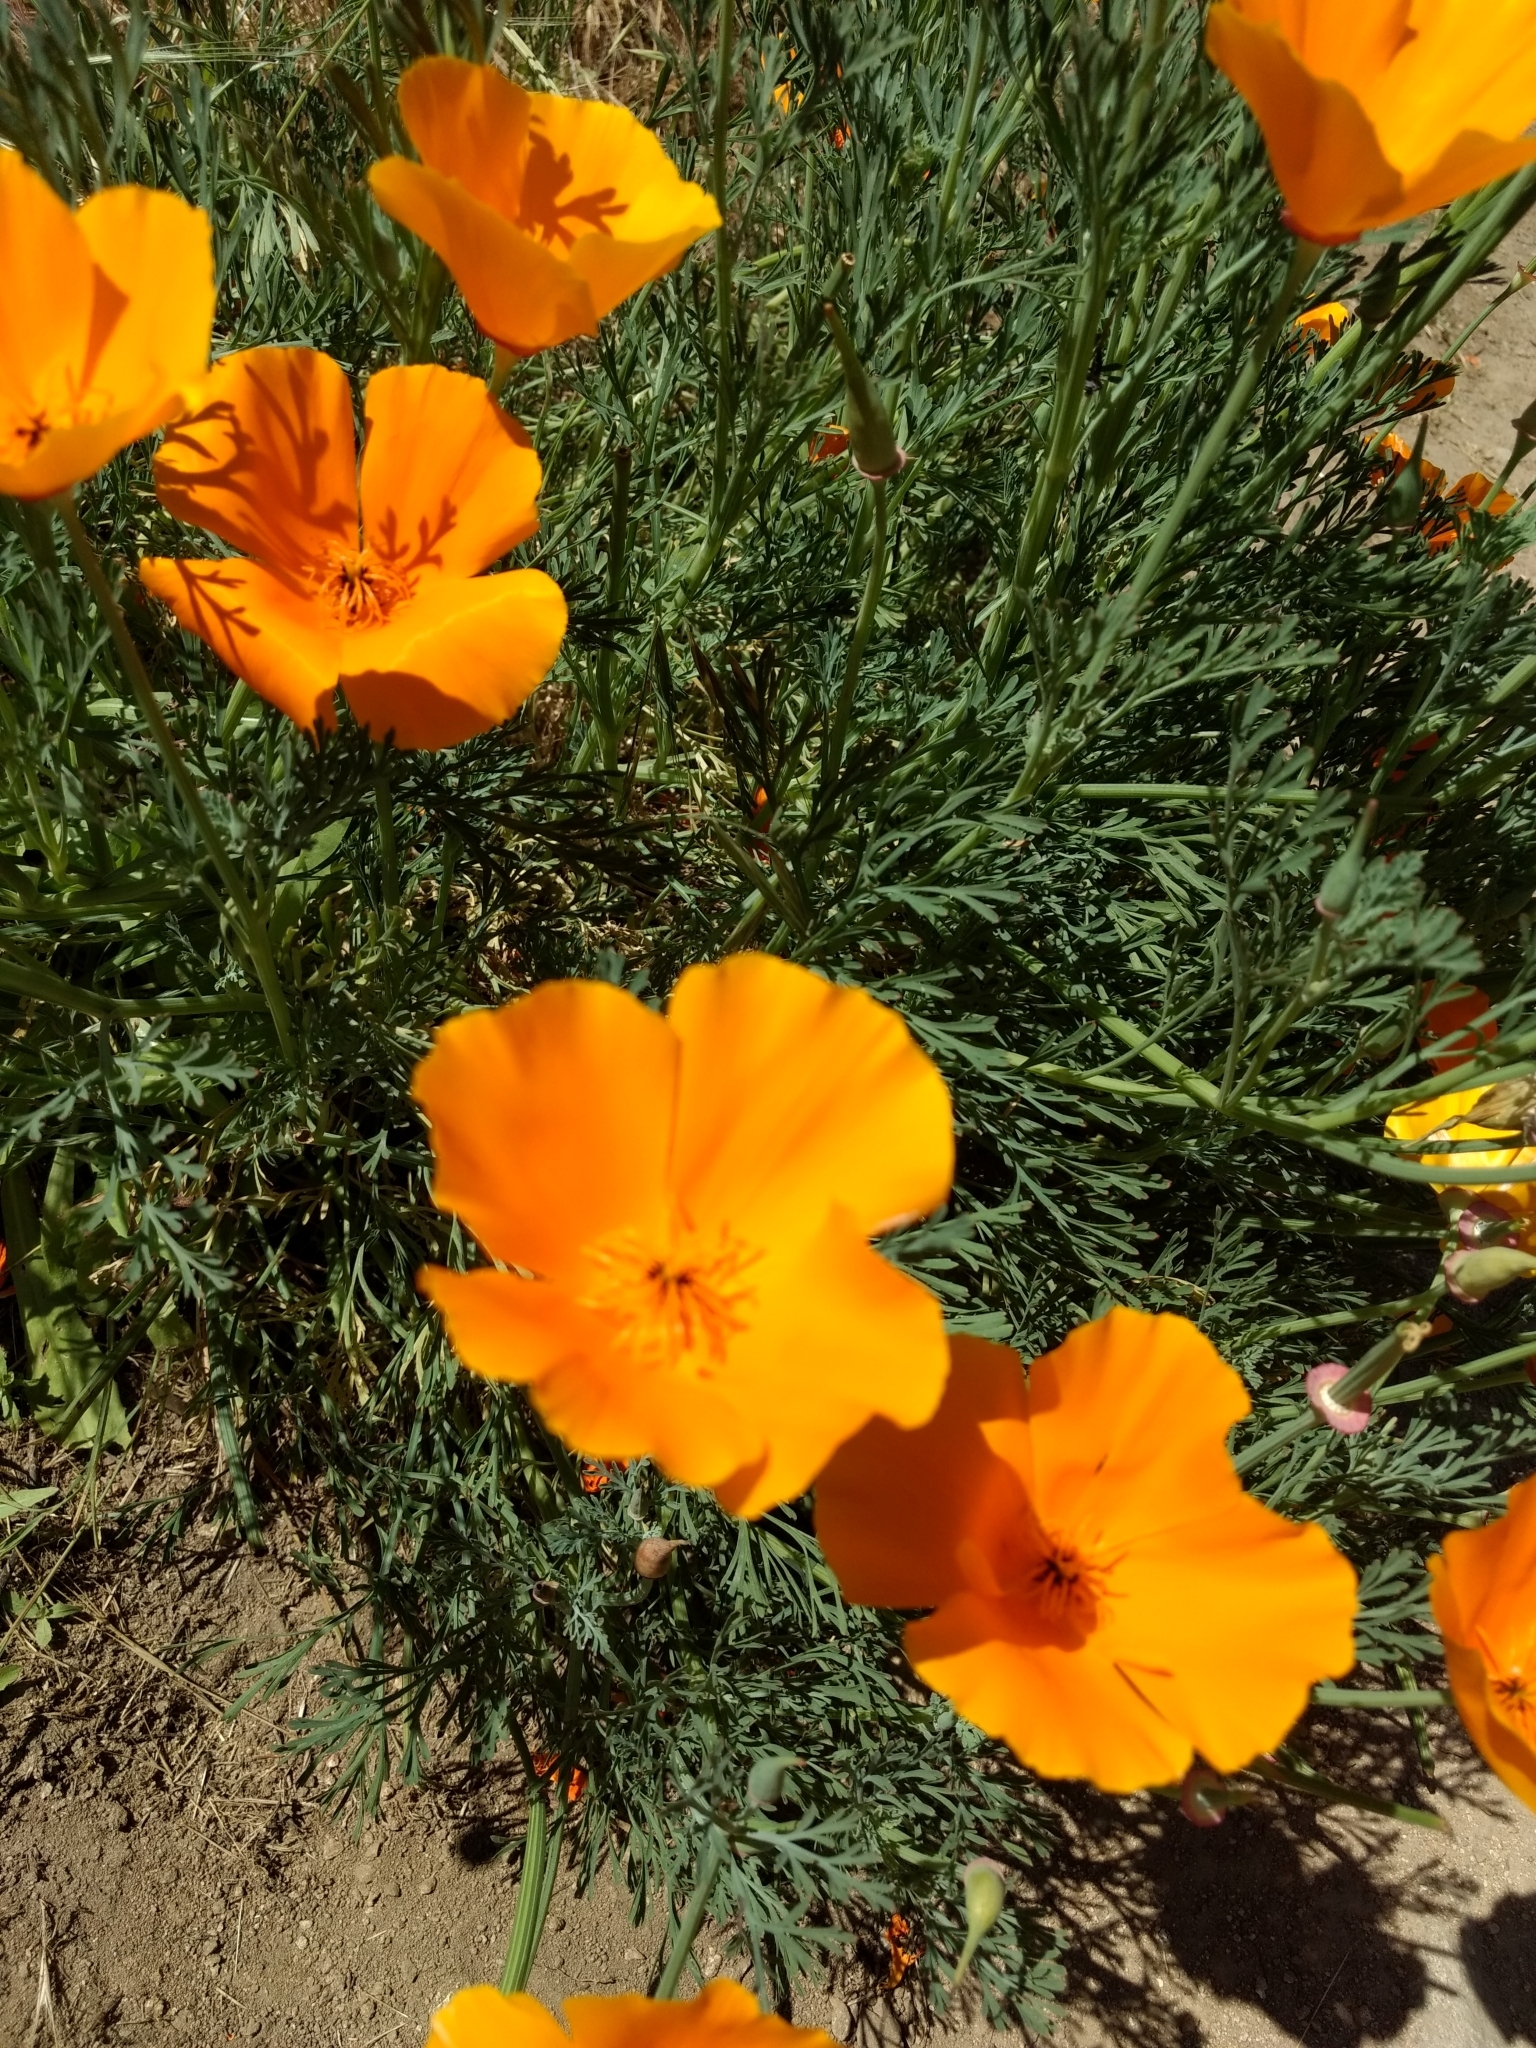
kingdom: Plantae
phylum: Tracheophyta
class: Magnoliopsida
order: Ranunculales
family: Papaveraceae
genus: Eschscholzia
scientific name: Eschscholzia californica
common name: California poppy
